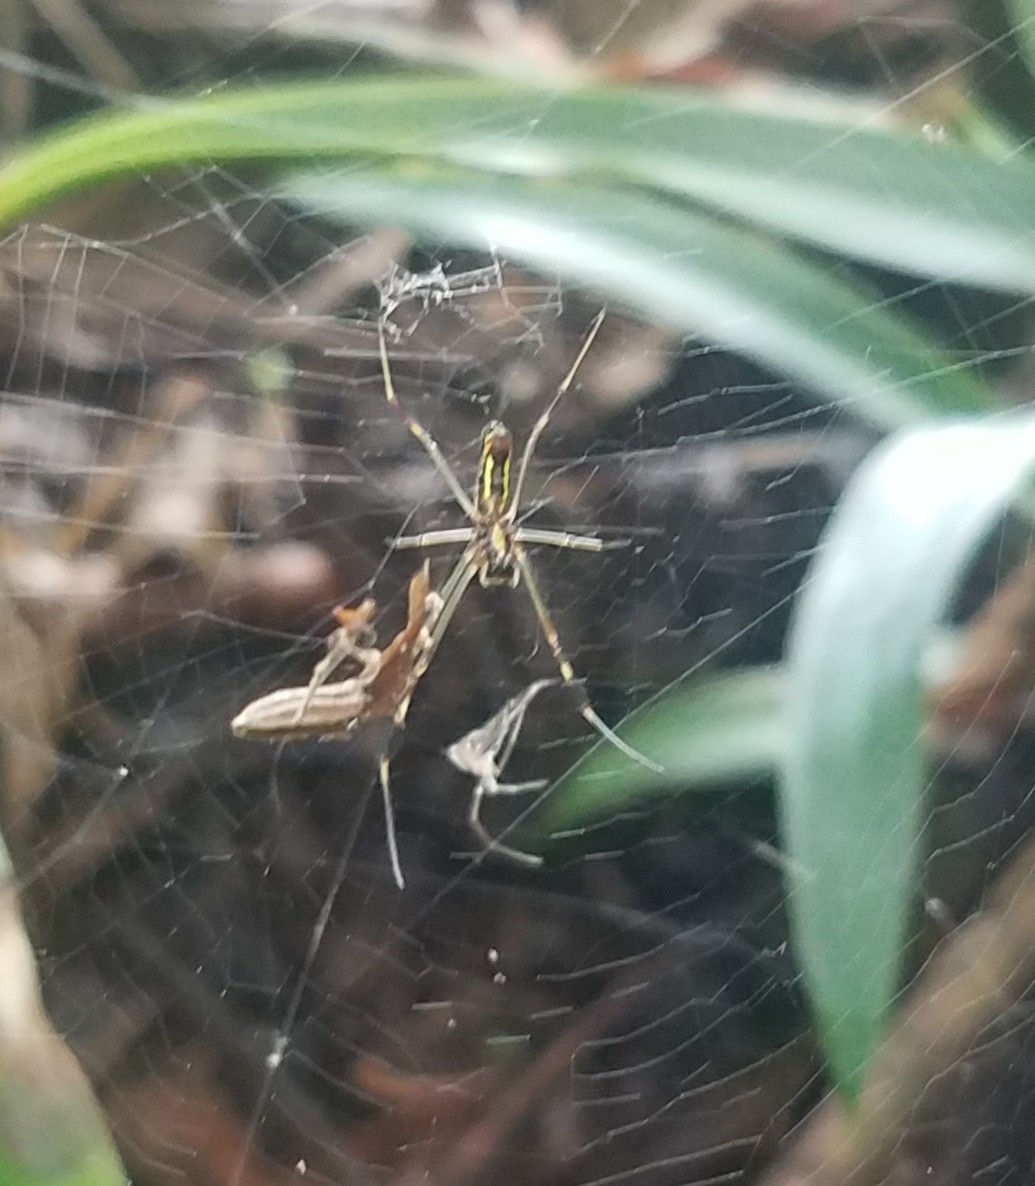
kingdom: Animalia
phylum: Arthropoda
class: Arachnida
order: Araneae
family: Araneidae
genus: Trichonephila
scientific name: Trichonephila clavipes
